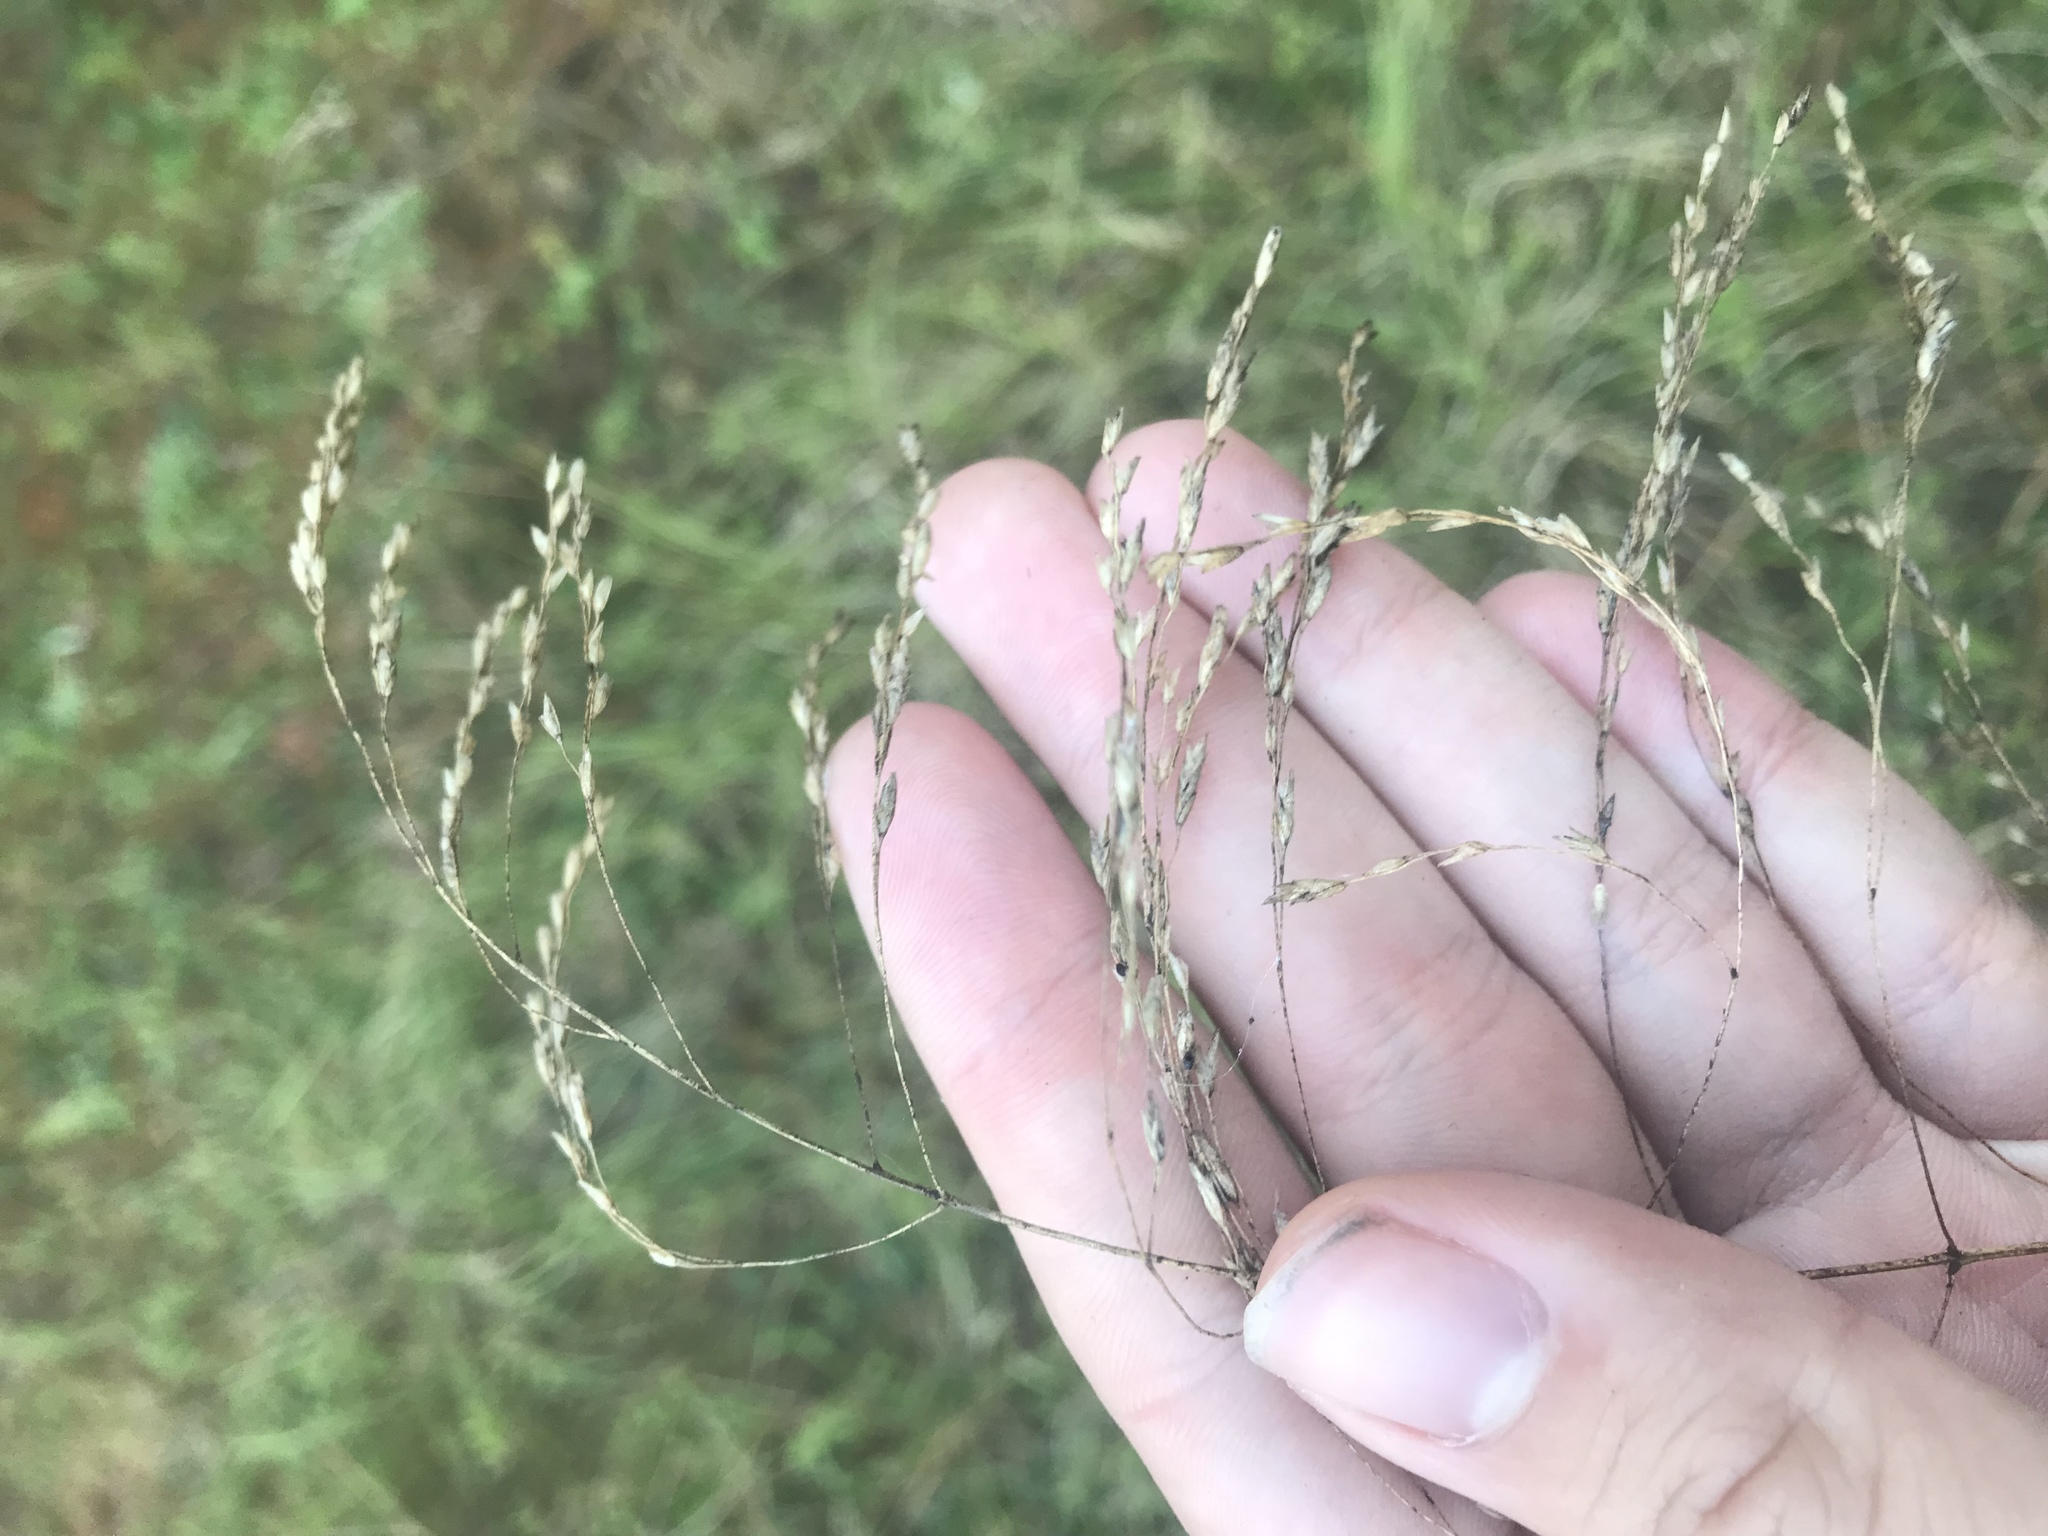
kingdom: Plantae
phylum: Tracheophyta
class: Liliopsida
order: Poales
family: Poaceae
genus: Tridens
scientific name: Tridens flavus
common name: Purpletop
